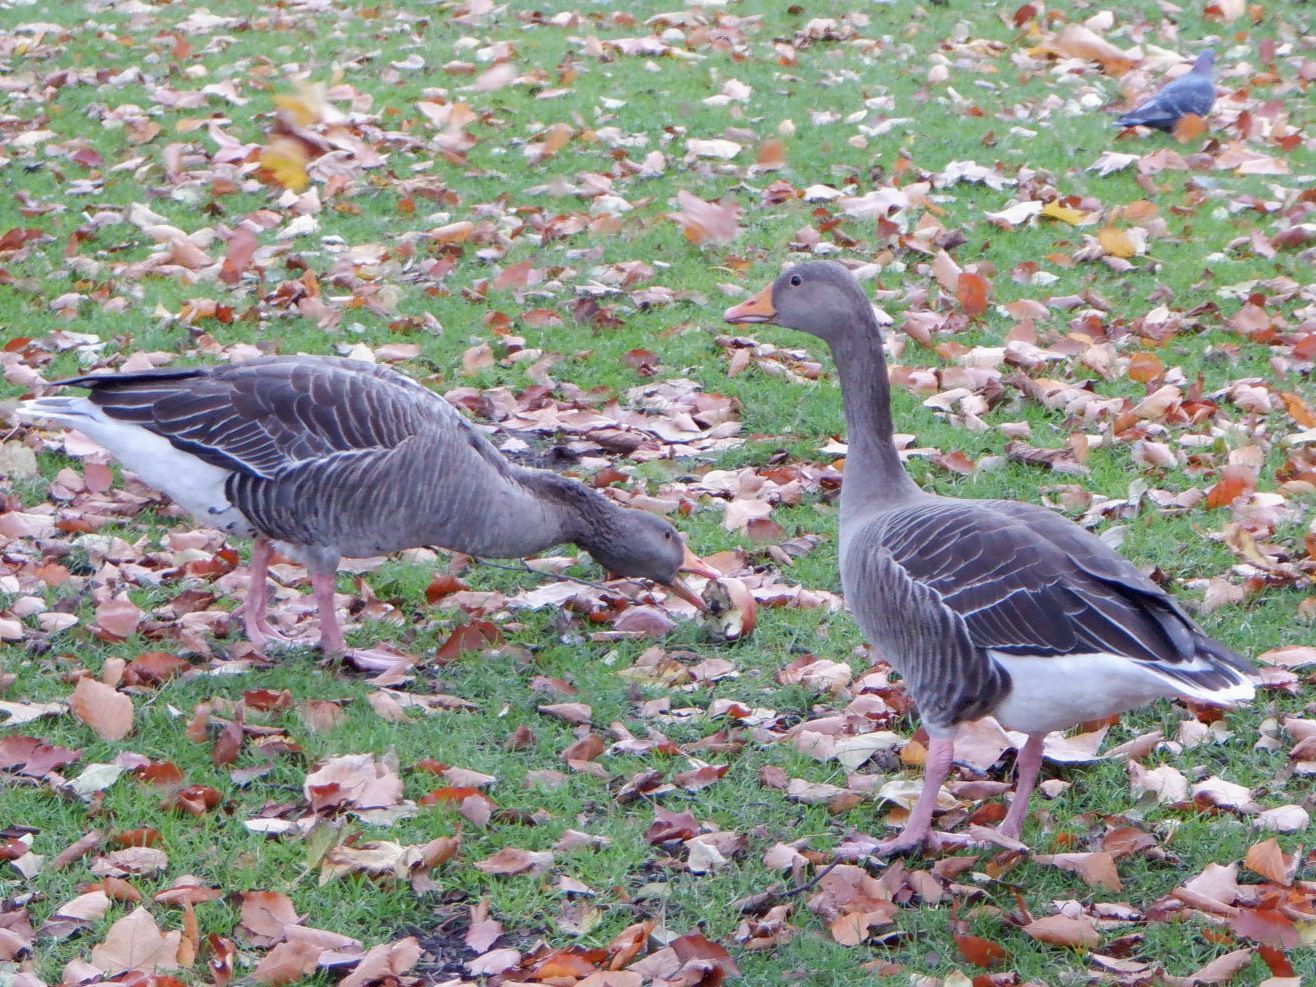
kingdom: Animalia
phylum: Chordata
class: Aves
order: Anseriformes
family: Anatidae
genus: Anser
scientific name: Anser anser
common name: Greylag goose
